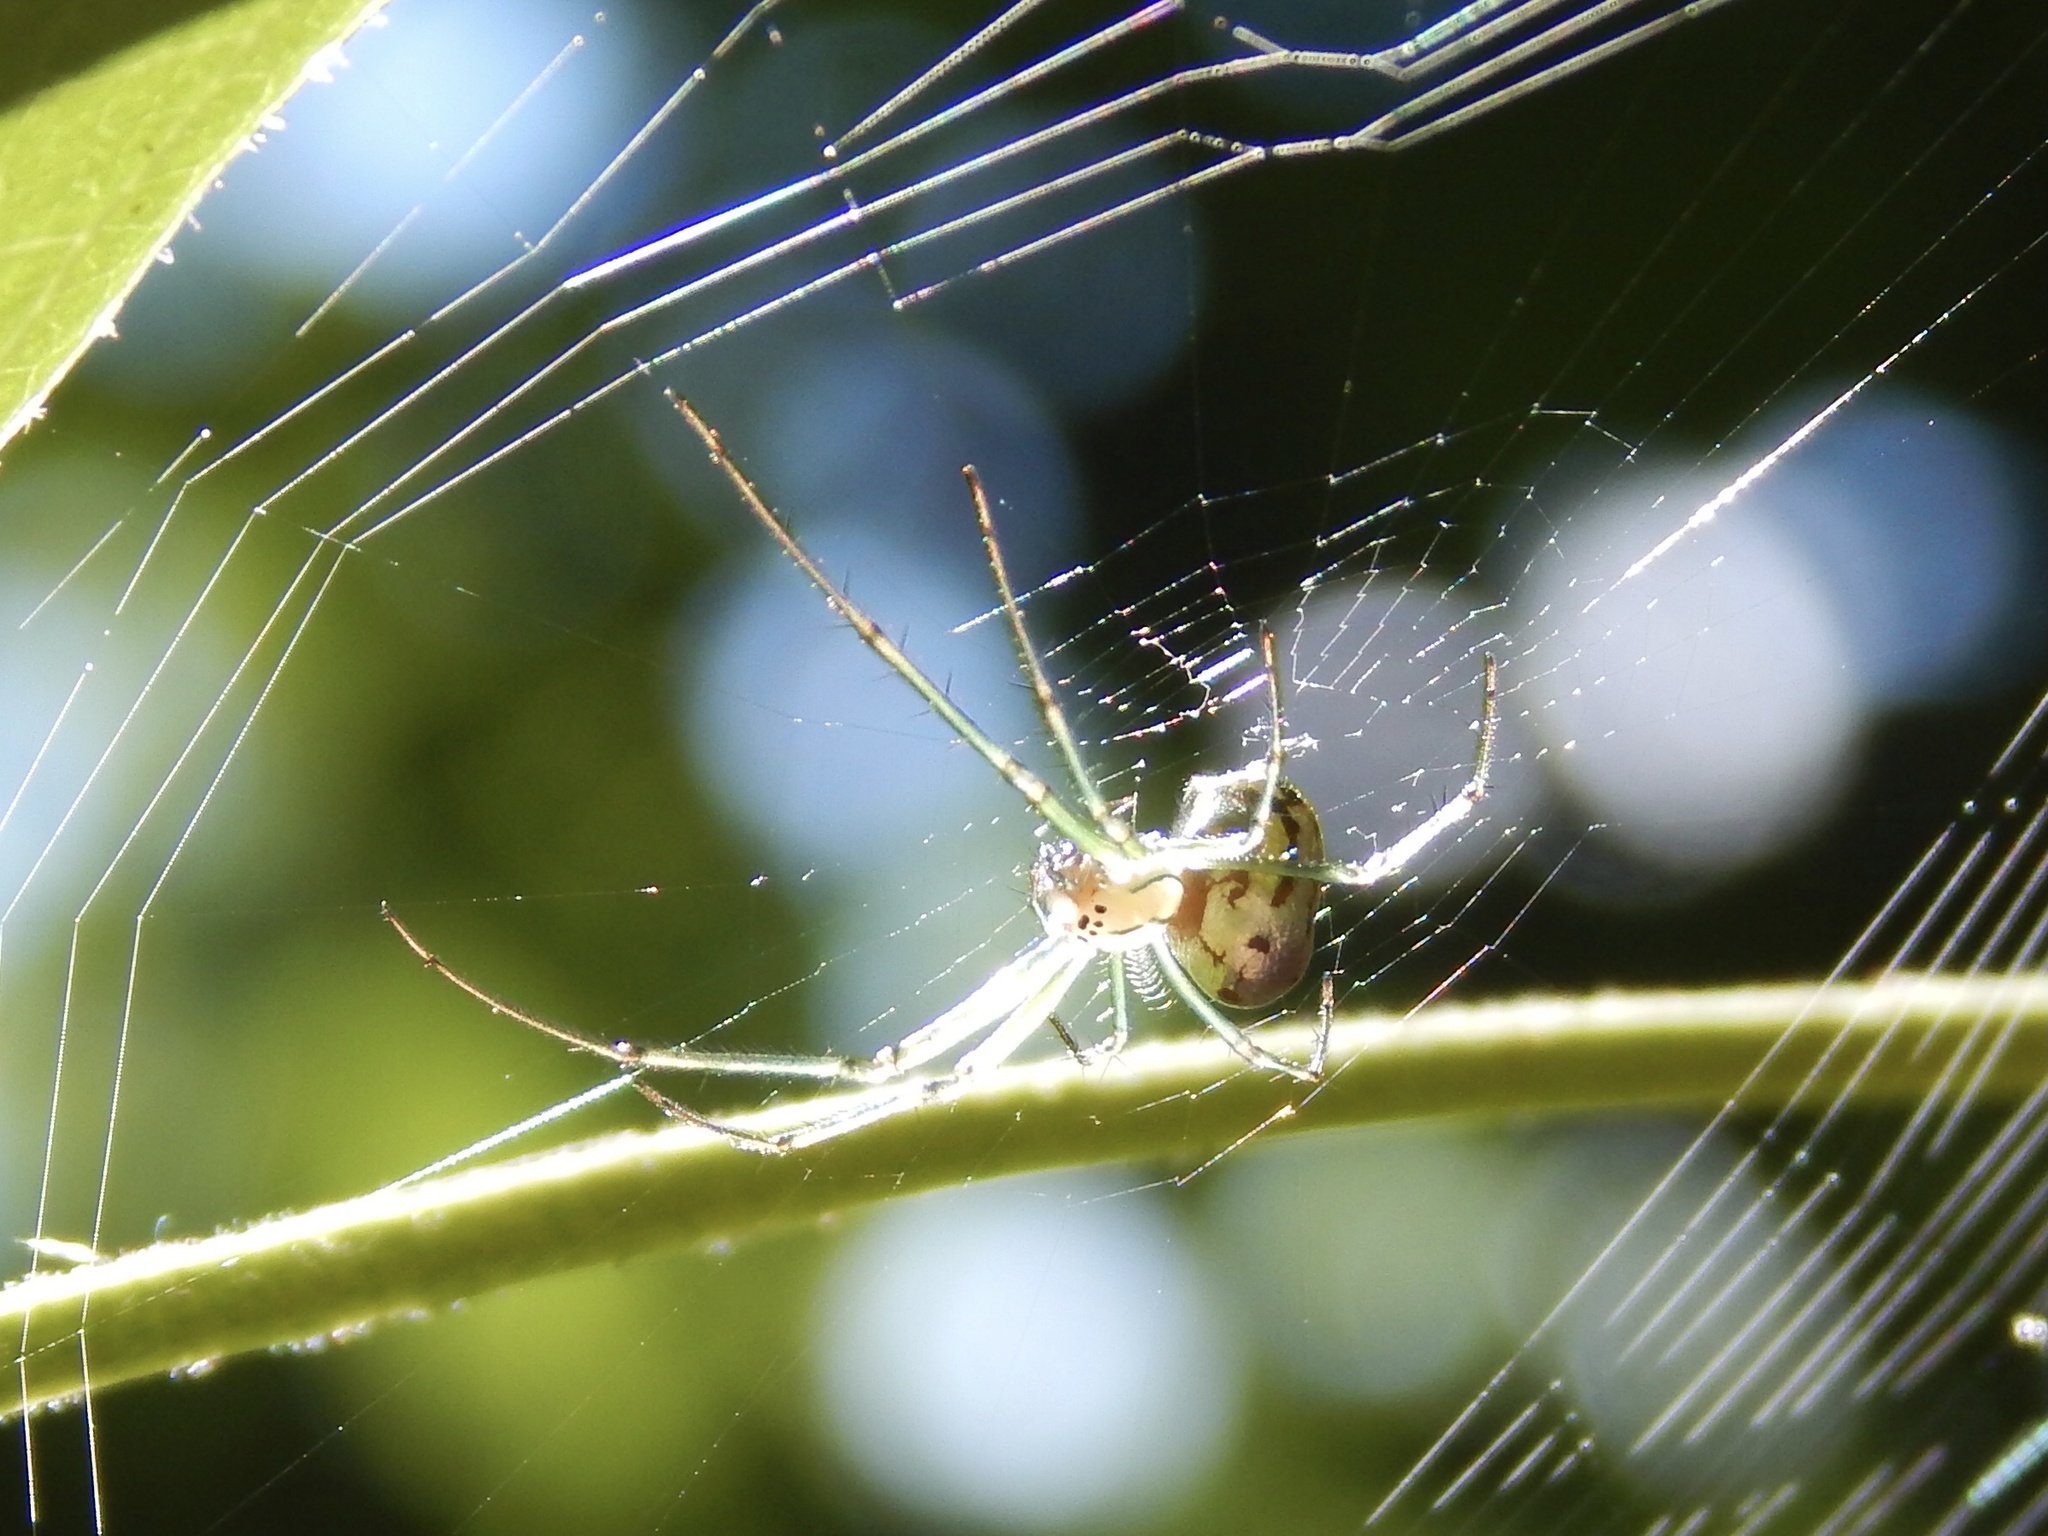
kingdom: Animalia
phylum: Arthropoda
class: Arachnida
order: Araneae
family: Tetragnathidae
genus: Leucauge
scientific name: Leucauge venusta
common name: Longjawed orb weavers
